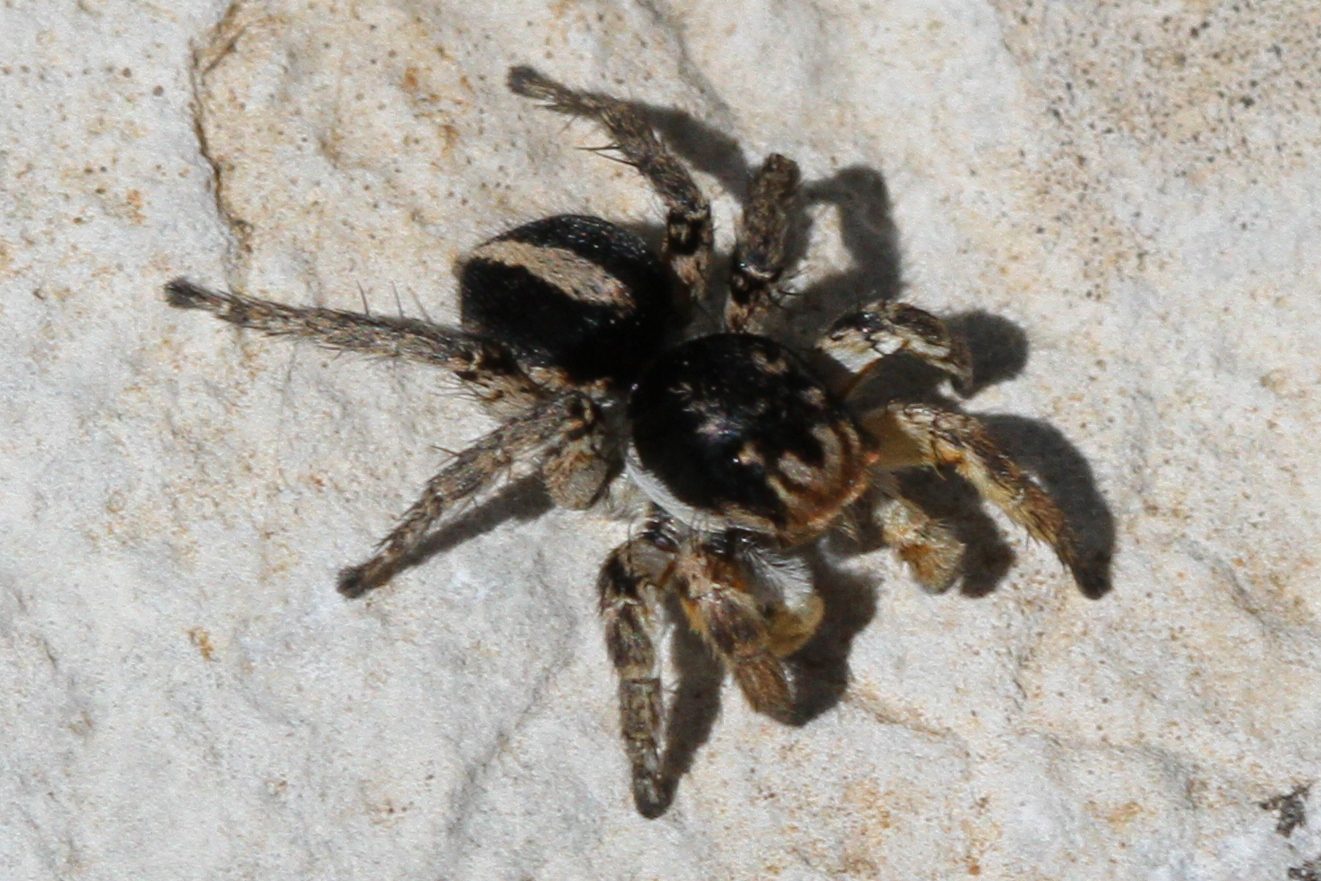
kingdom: Animalia
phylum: Arthropoda
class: Arachnida
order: Araneae
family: Salticidae
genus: Aelurillus
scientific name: Aelurillus v-insignitus
